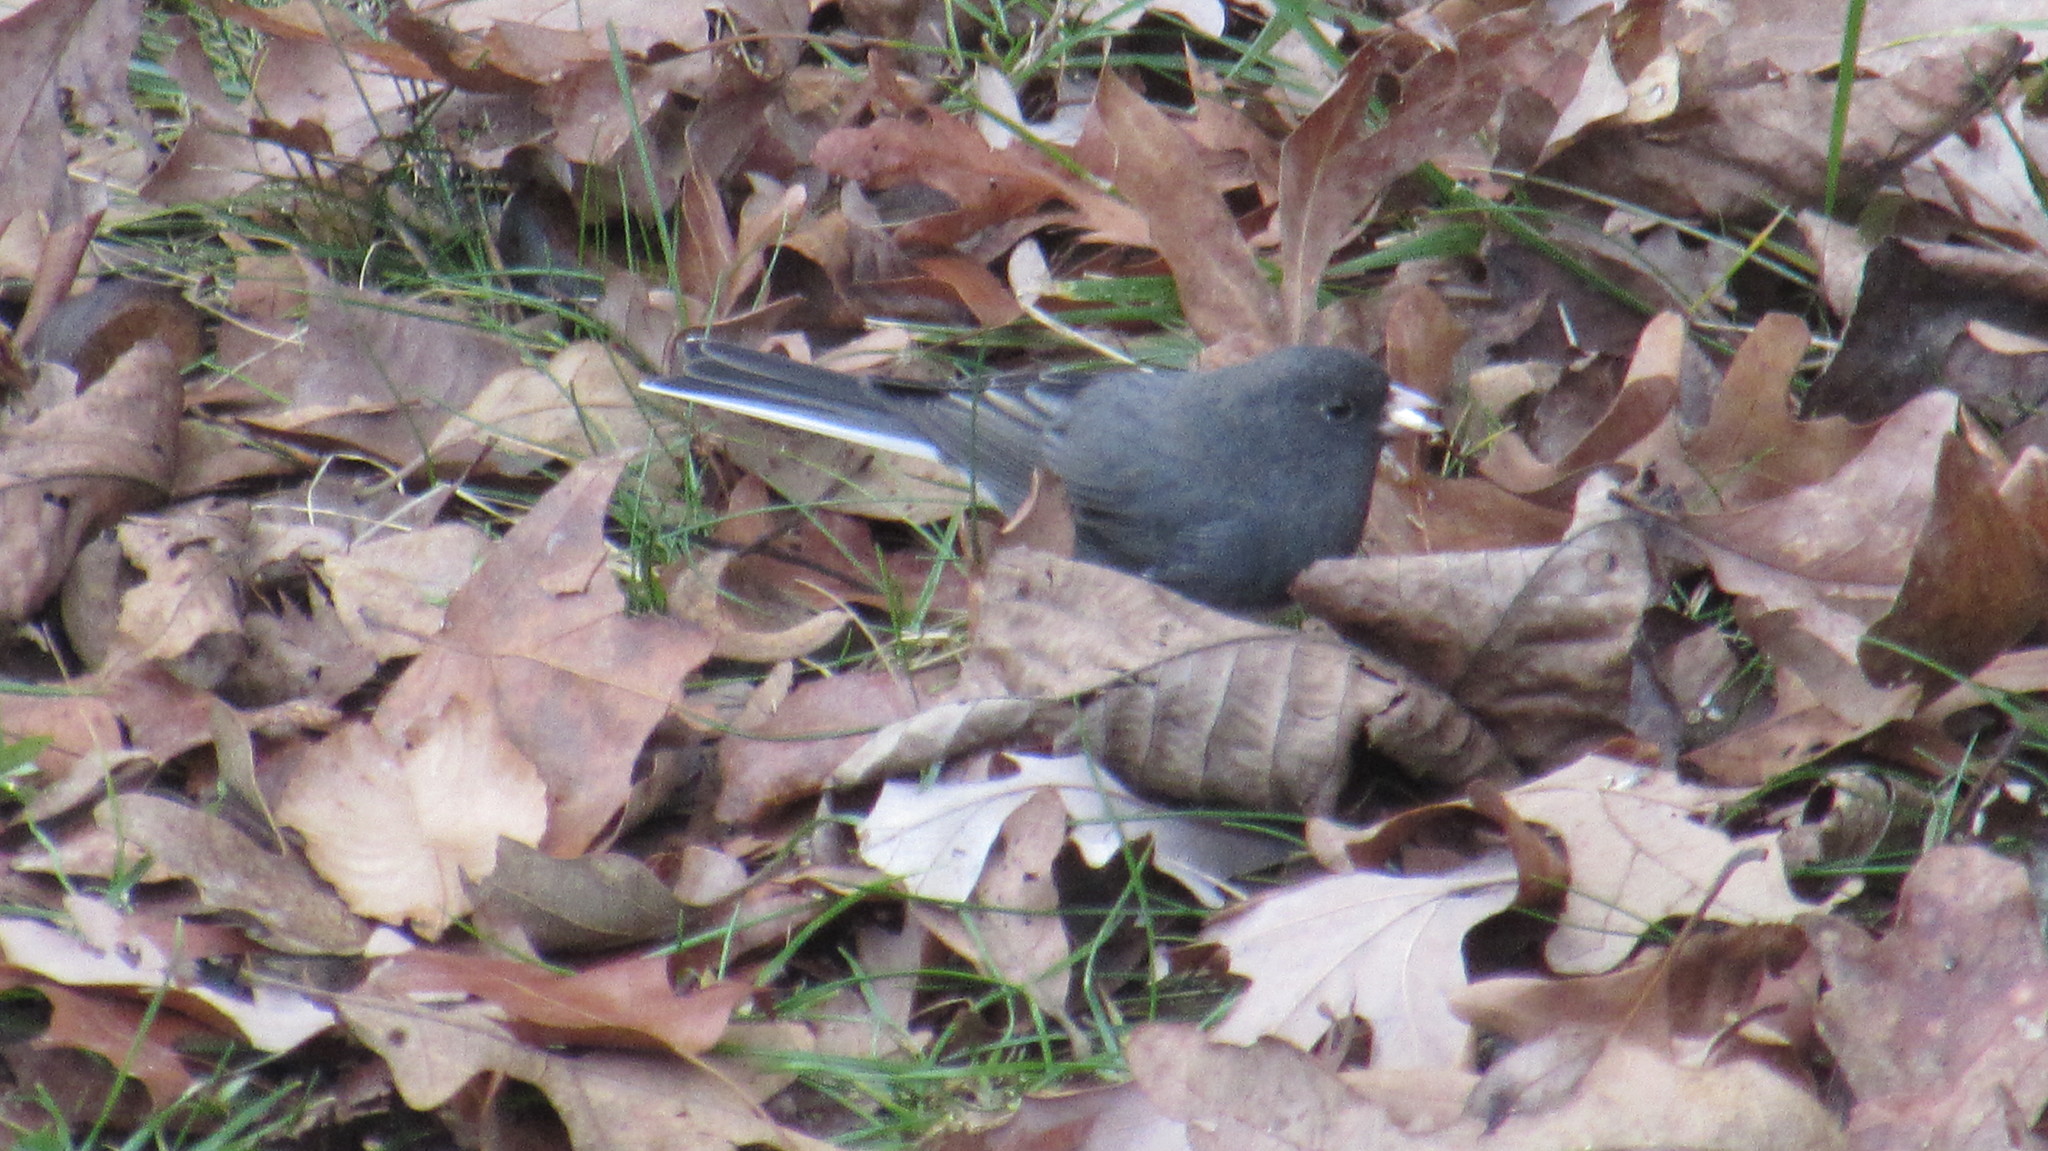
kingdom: Animalia
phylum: Chordata
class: Aves
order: Passeriformes
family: Passerellidae
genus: Junco
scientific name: Junco hyemalis
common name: Dark-eyed junco
